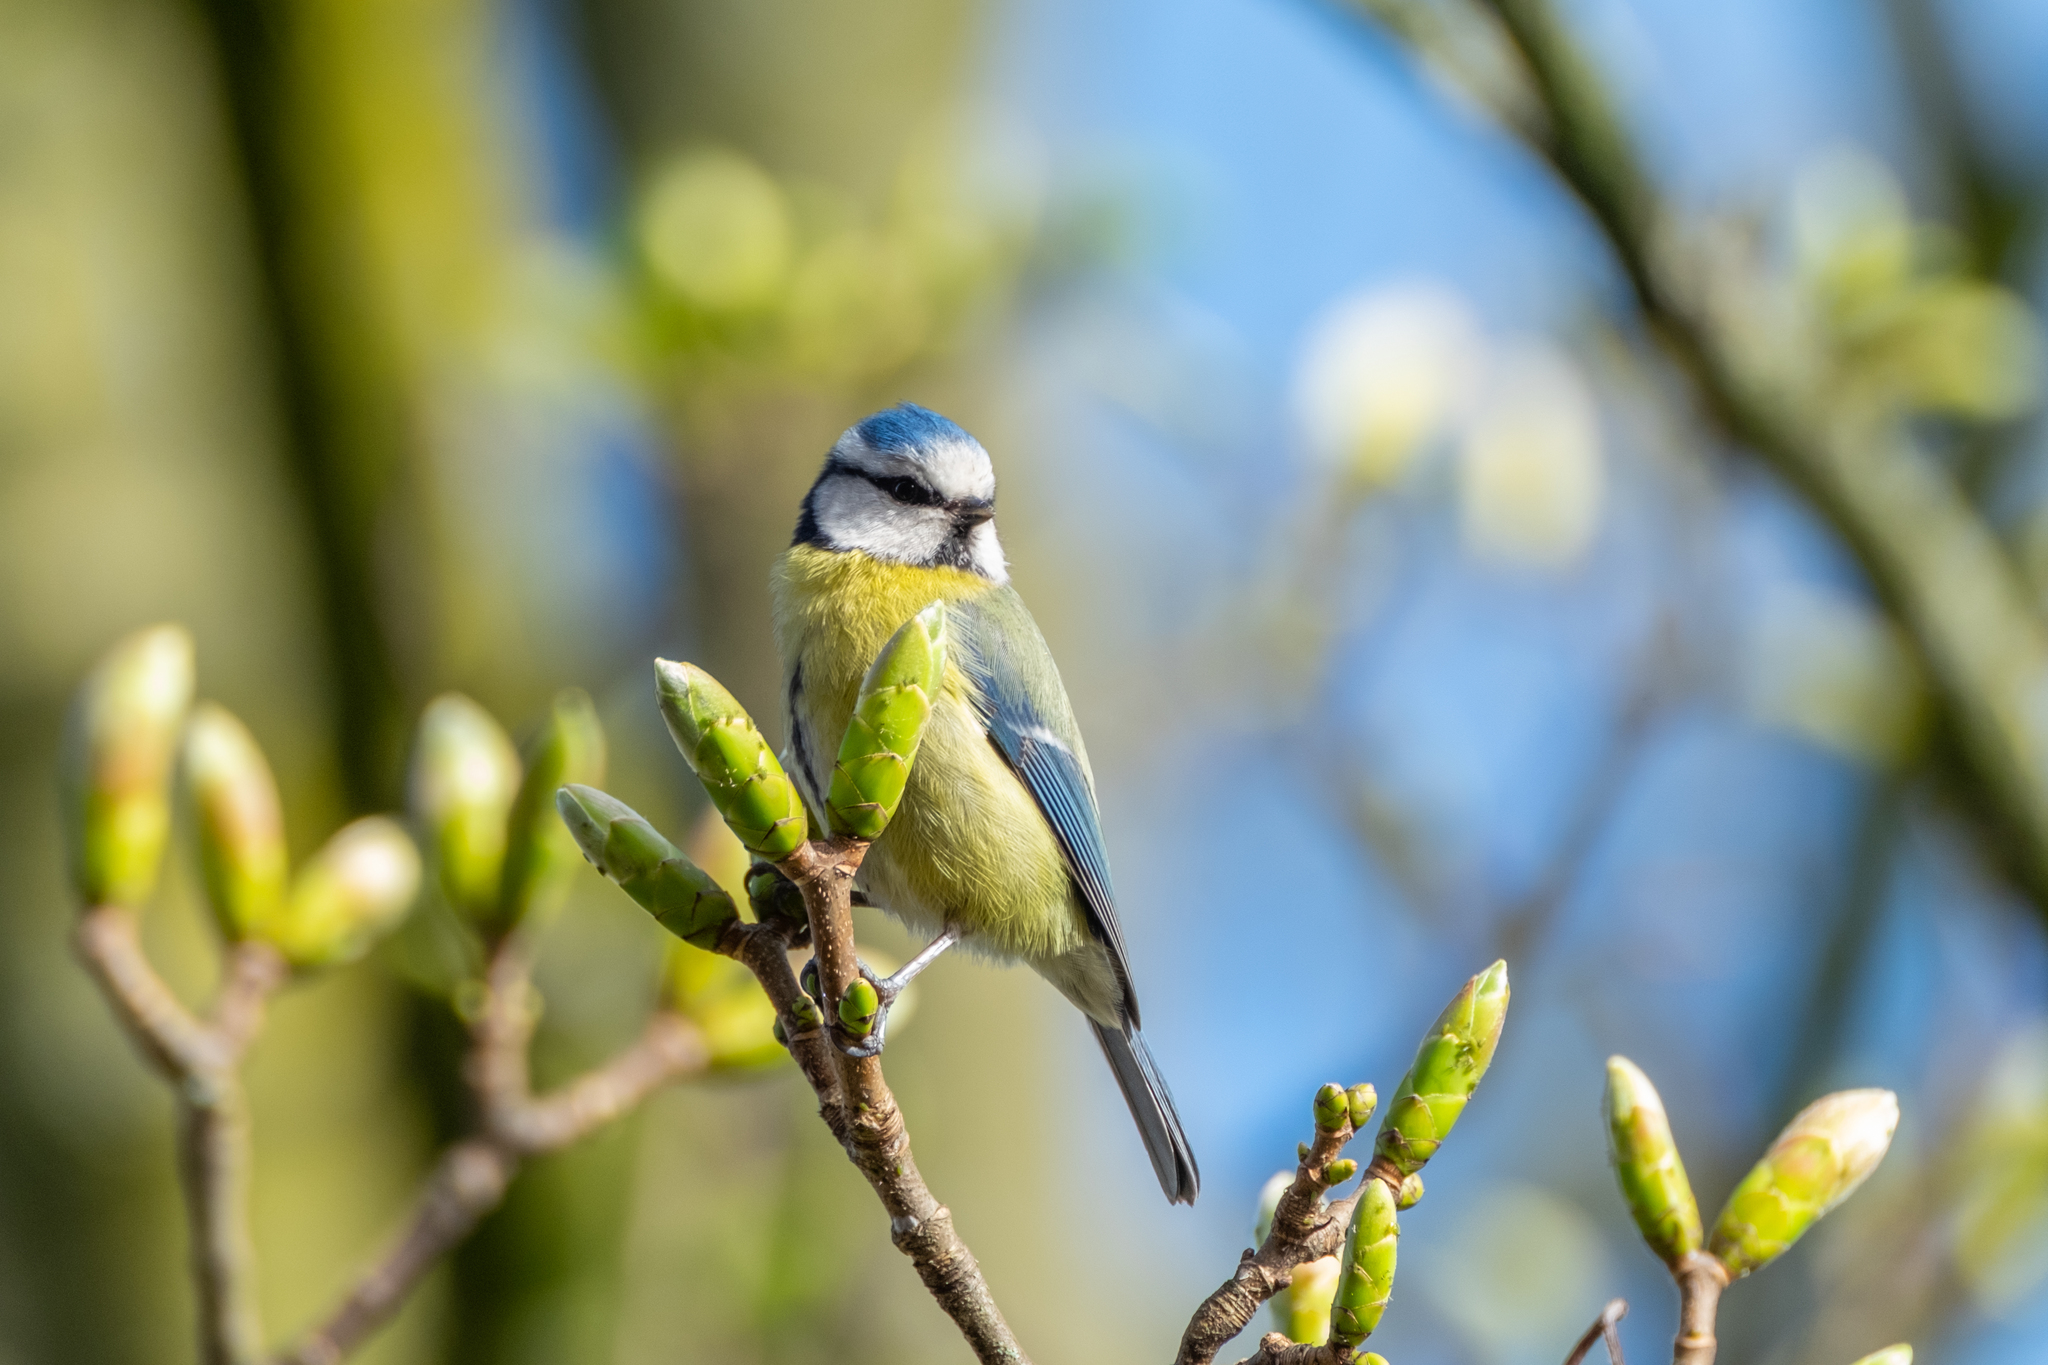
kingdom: Animalia
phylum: Chordata
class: Aves
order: Passeriformes
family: Paridae
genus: Cyanistes
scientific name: Cyanistes caeruleus
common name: Eurasian blue tit
